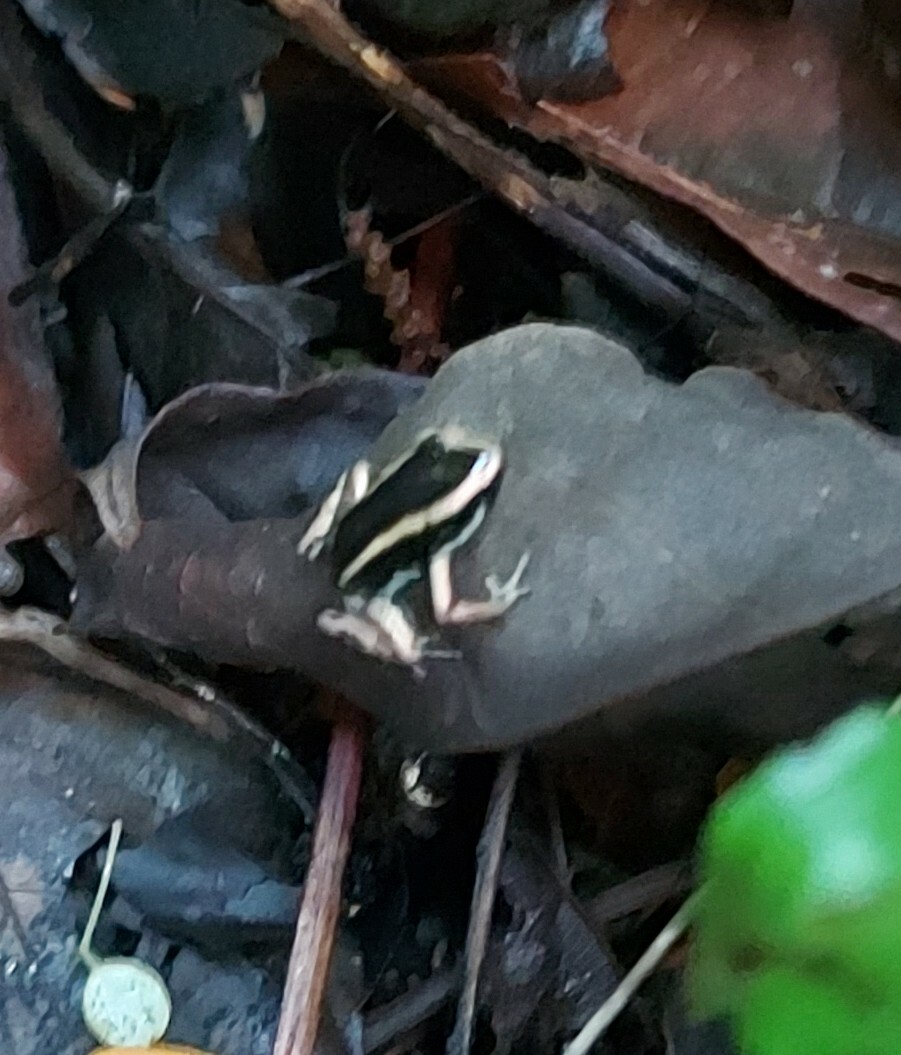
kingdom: Animalia
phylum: Chordata
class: Amphibia
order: Anura
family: Dendrobatidae
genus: Phyllobates
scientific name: Phyllobates lugubris
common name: Lovely poison frog
